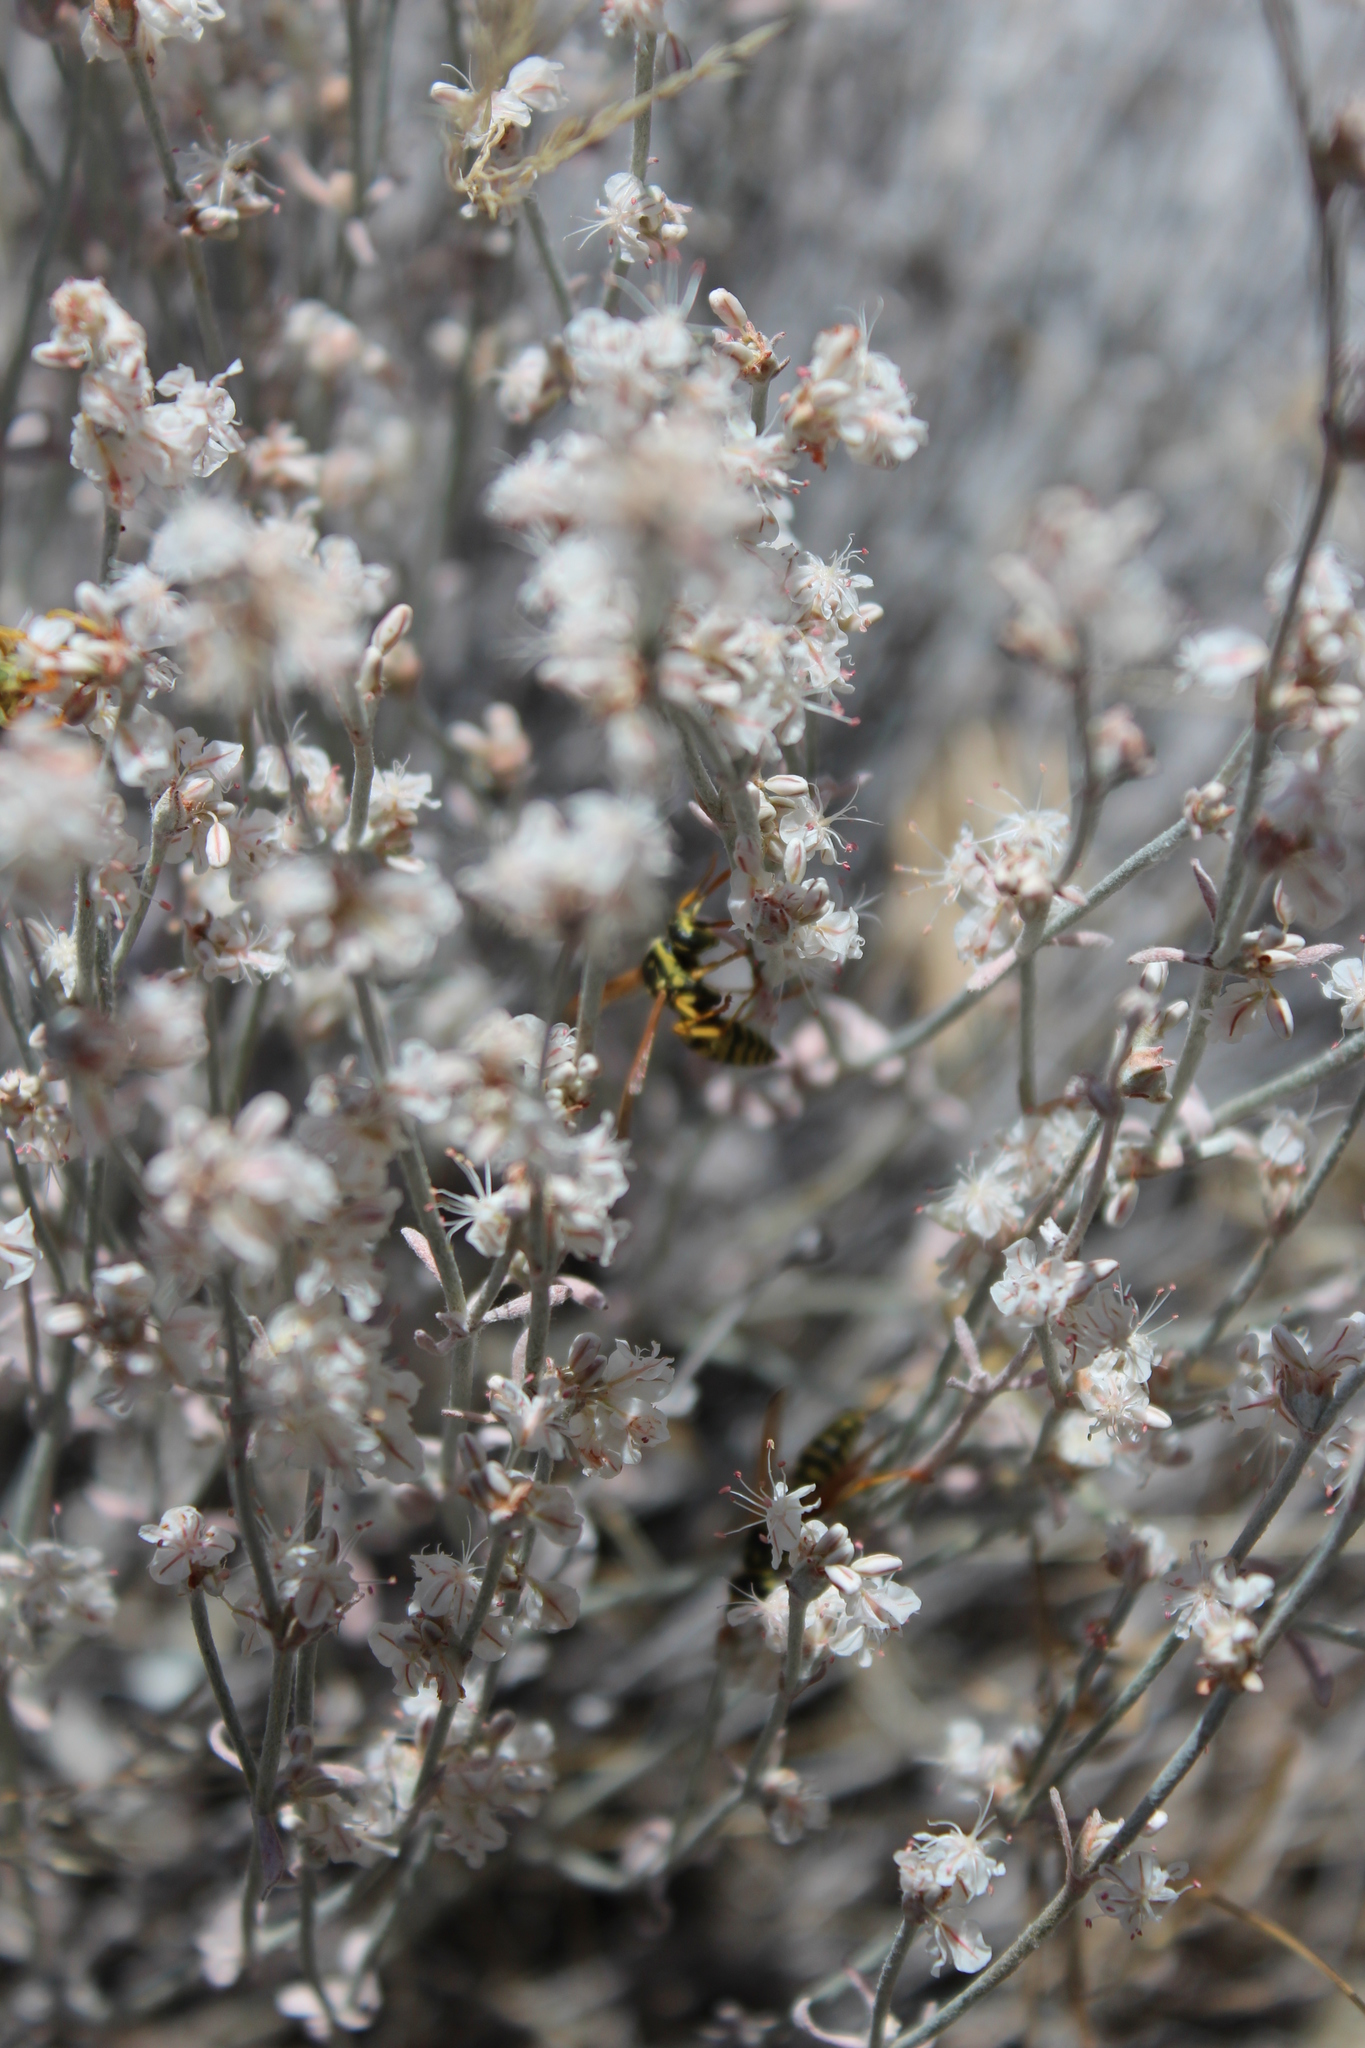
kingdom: Animalia
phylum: Arthropoda
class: Insecta
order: Hymenoptera
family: Eumenidae
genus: Polistes
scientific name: Polistes dominula
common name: Paper wasp
